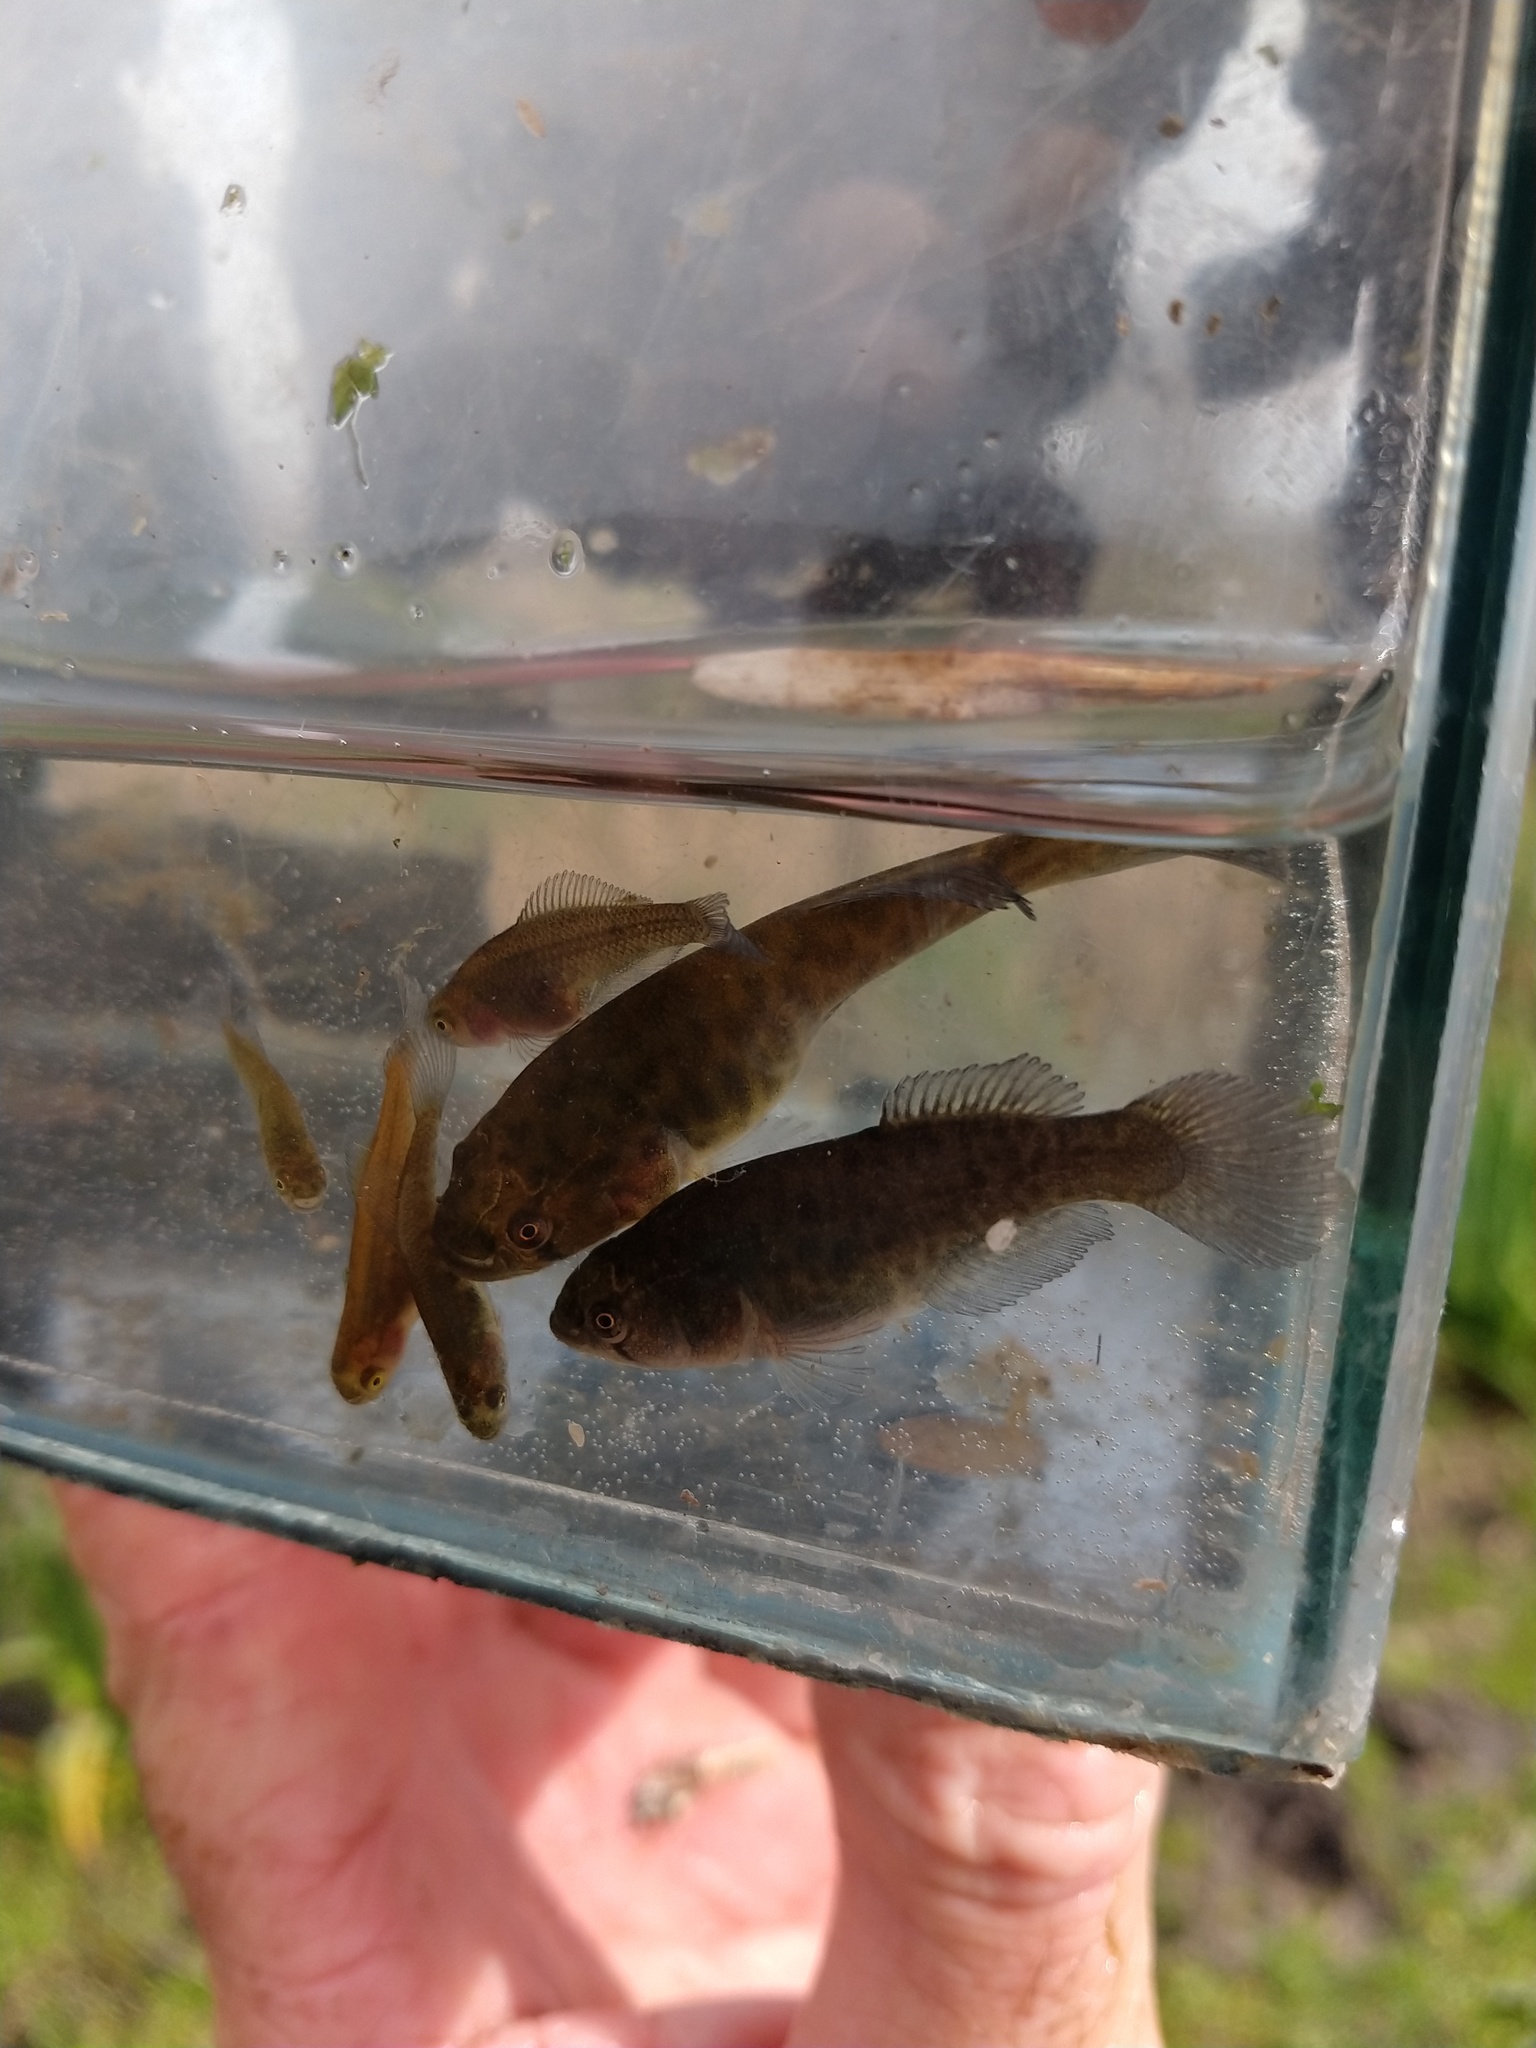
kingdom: Animalia
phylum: Chordata
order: Cyprinodontiformes
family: Rivulidae
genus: Austrolebias
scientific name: Austrolebias elongatus
